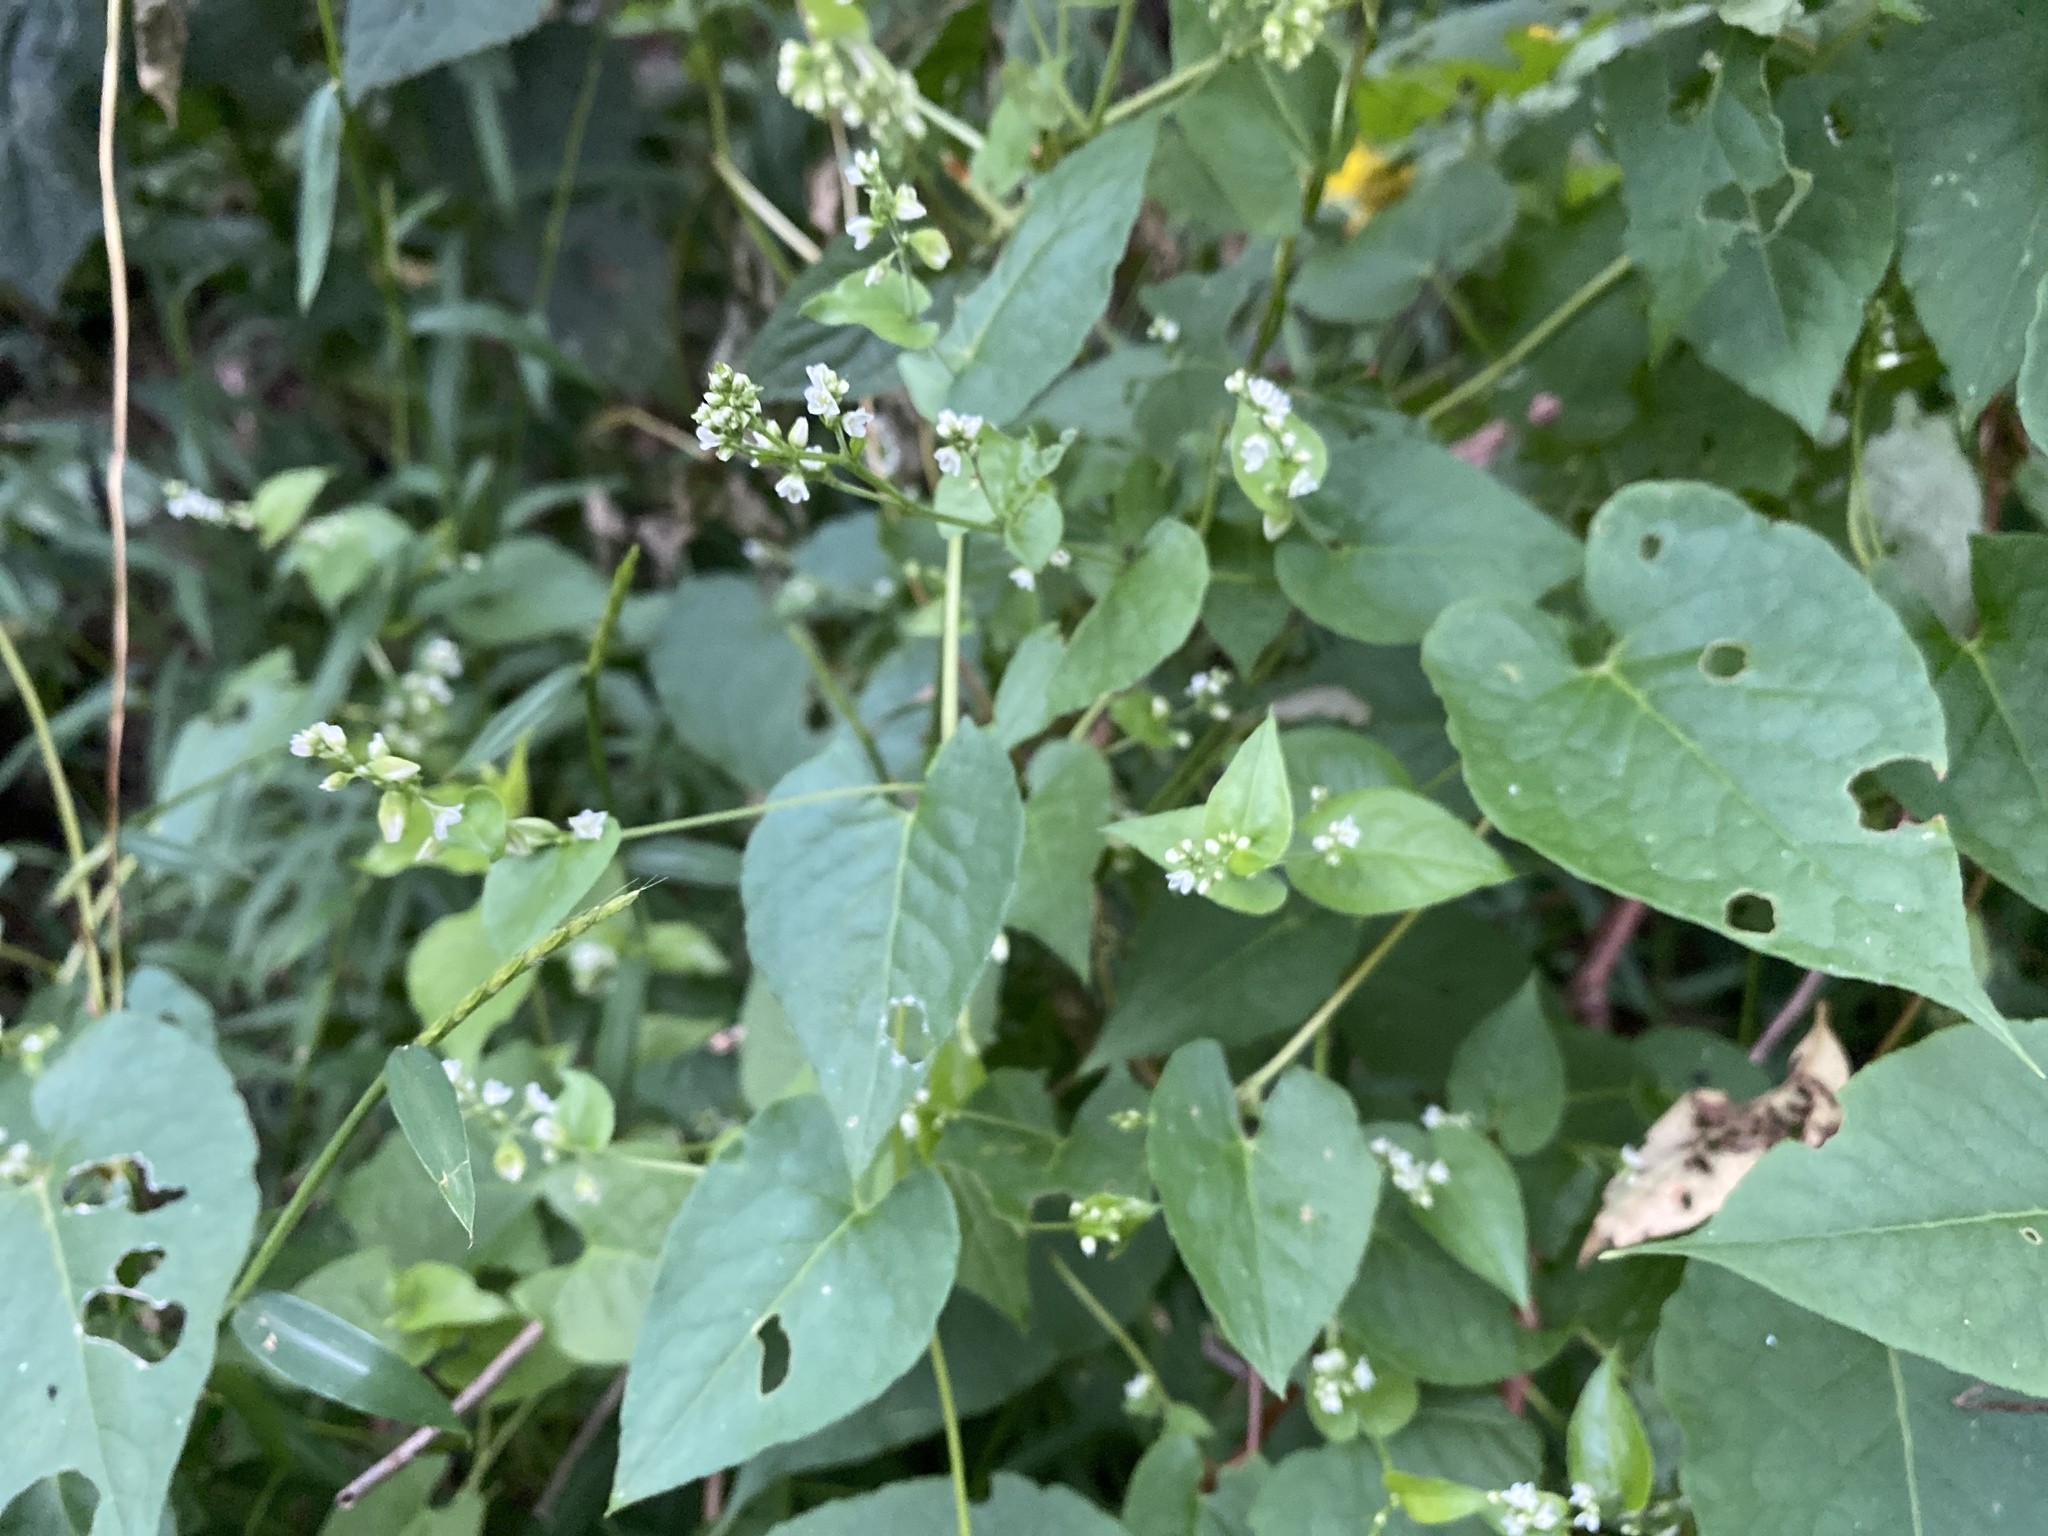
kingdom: Plantae
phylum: Tracheophyta
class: Magnoliopsida
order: Caryophyllales
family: Polygonaceae
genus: Fallopia
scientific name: Fallopia scandens
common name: Climbing false buckwheat
